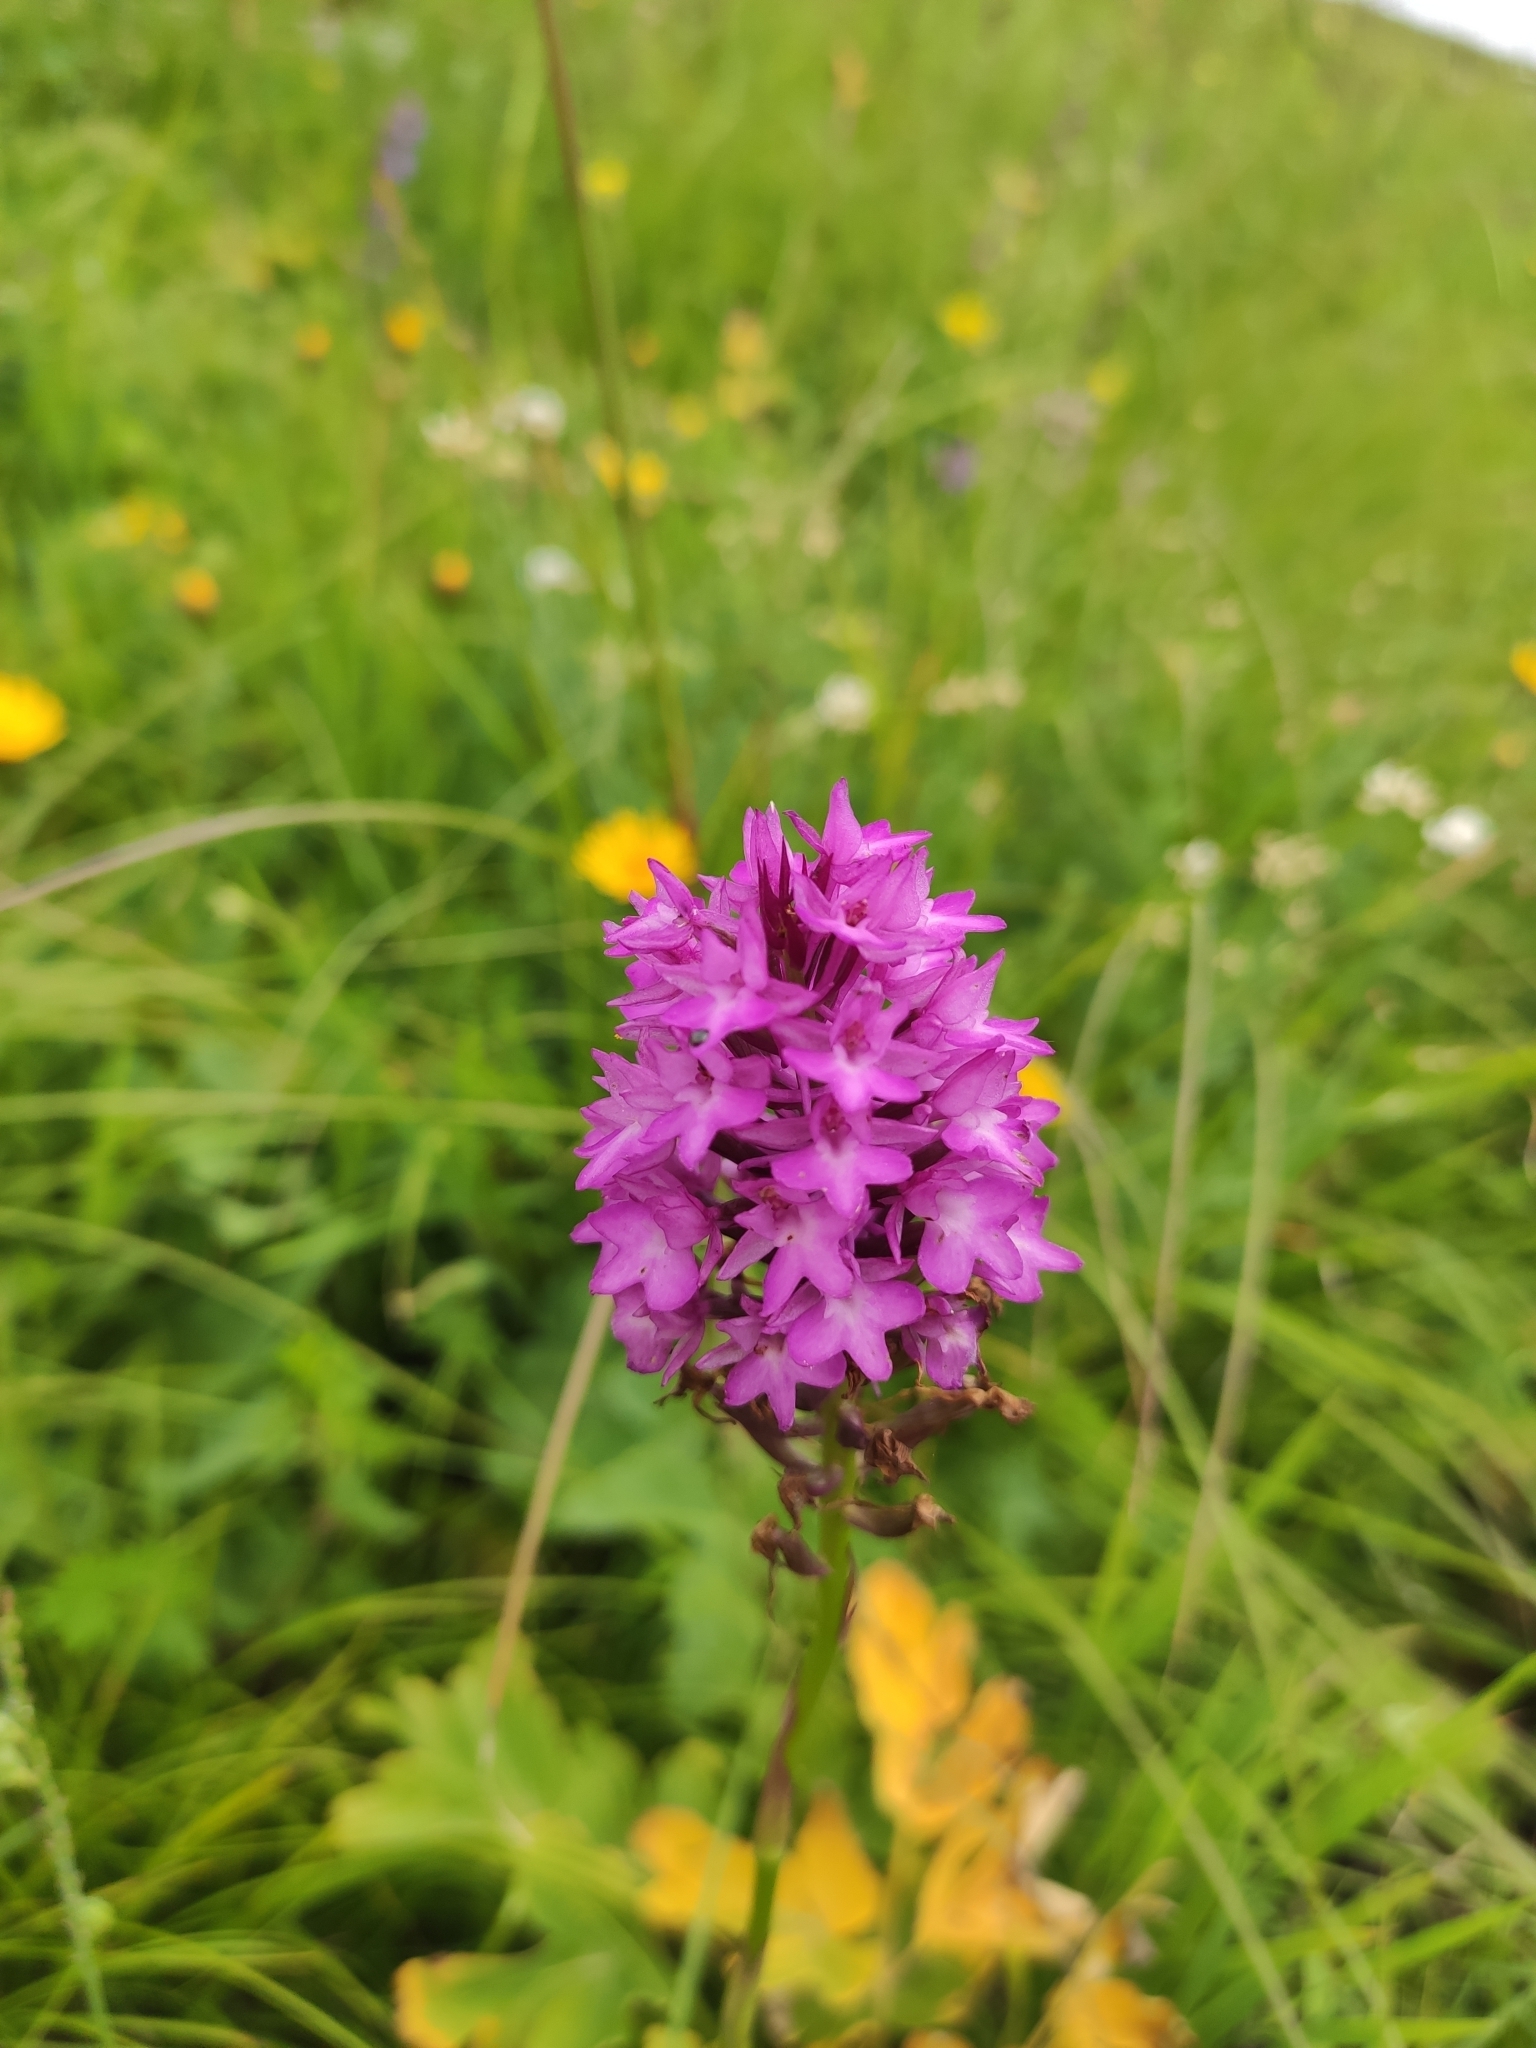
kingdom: Plantae
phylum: Tracheophyta
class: Liliopsida
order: Asparagales
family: Orchidaceae
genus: Anacamptis
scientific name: Anacamptis pyramidalis
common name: Pyramidal orchid
